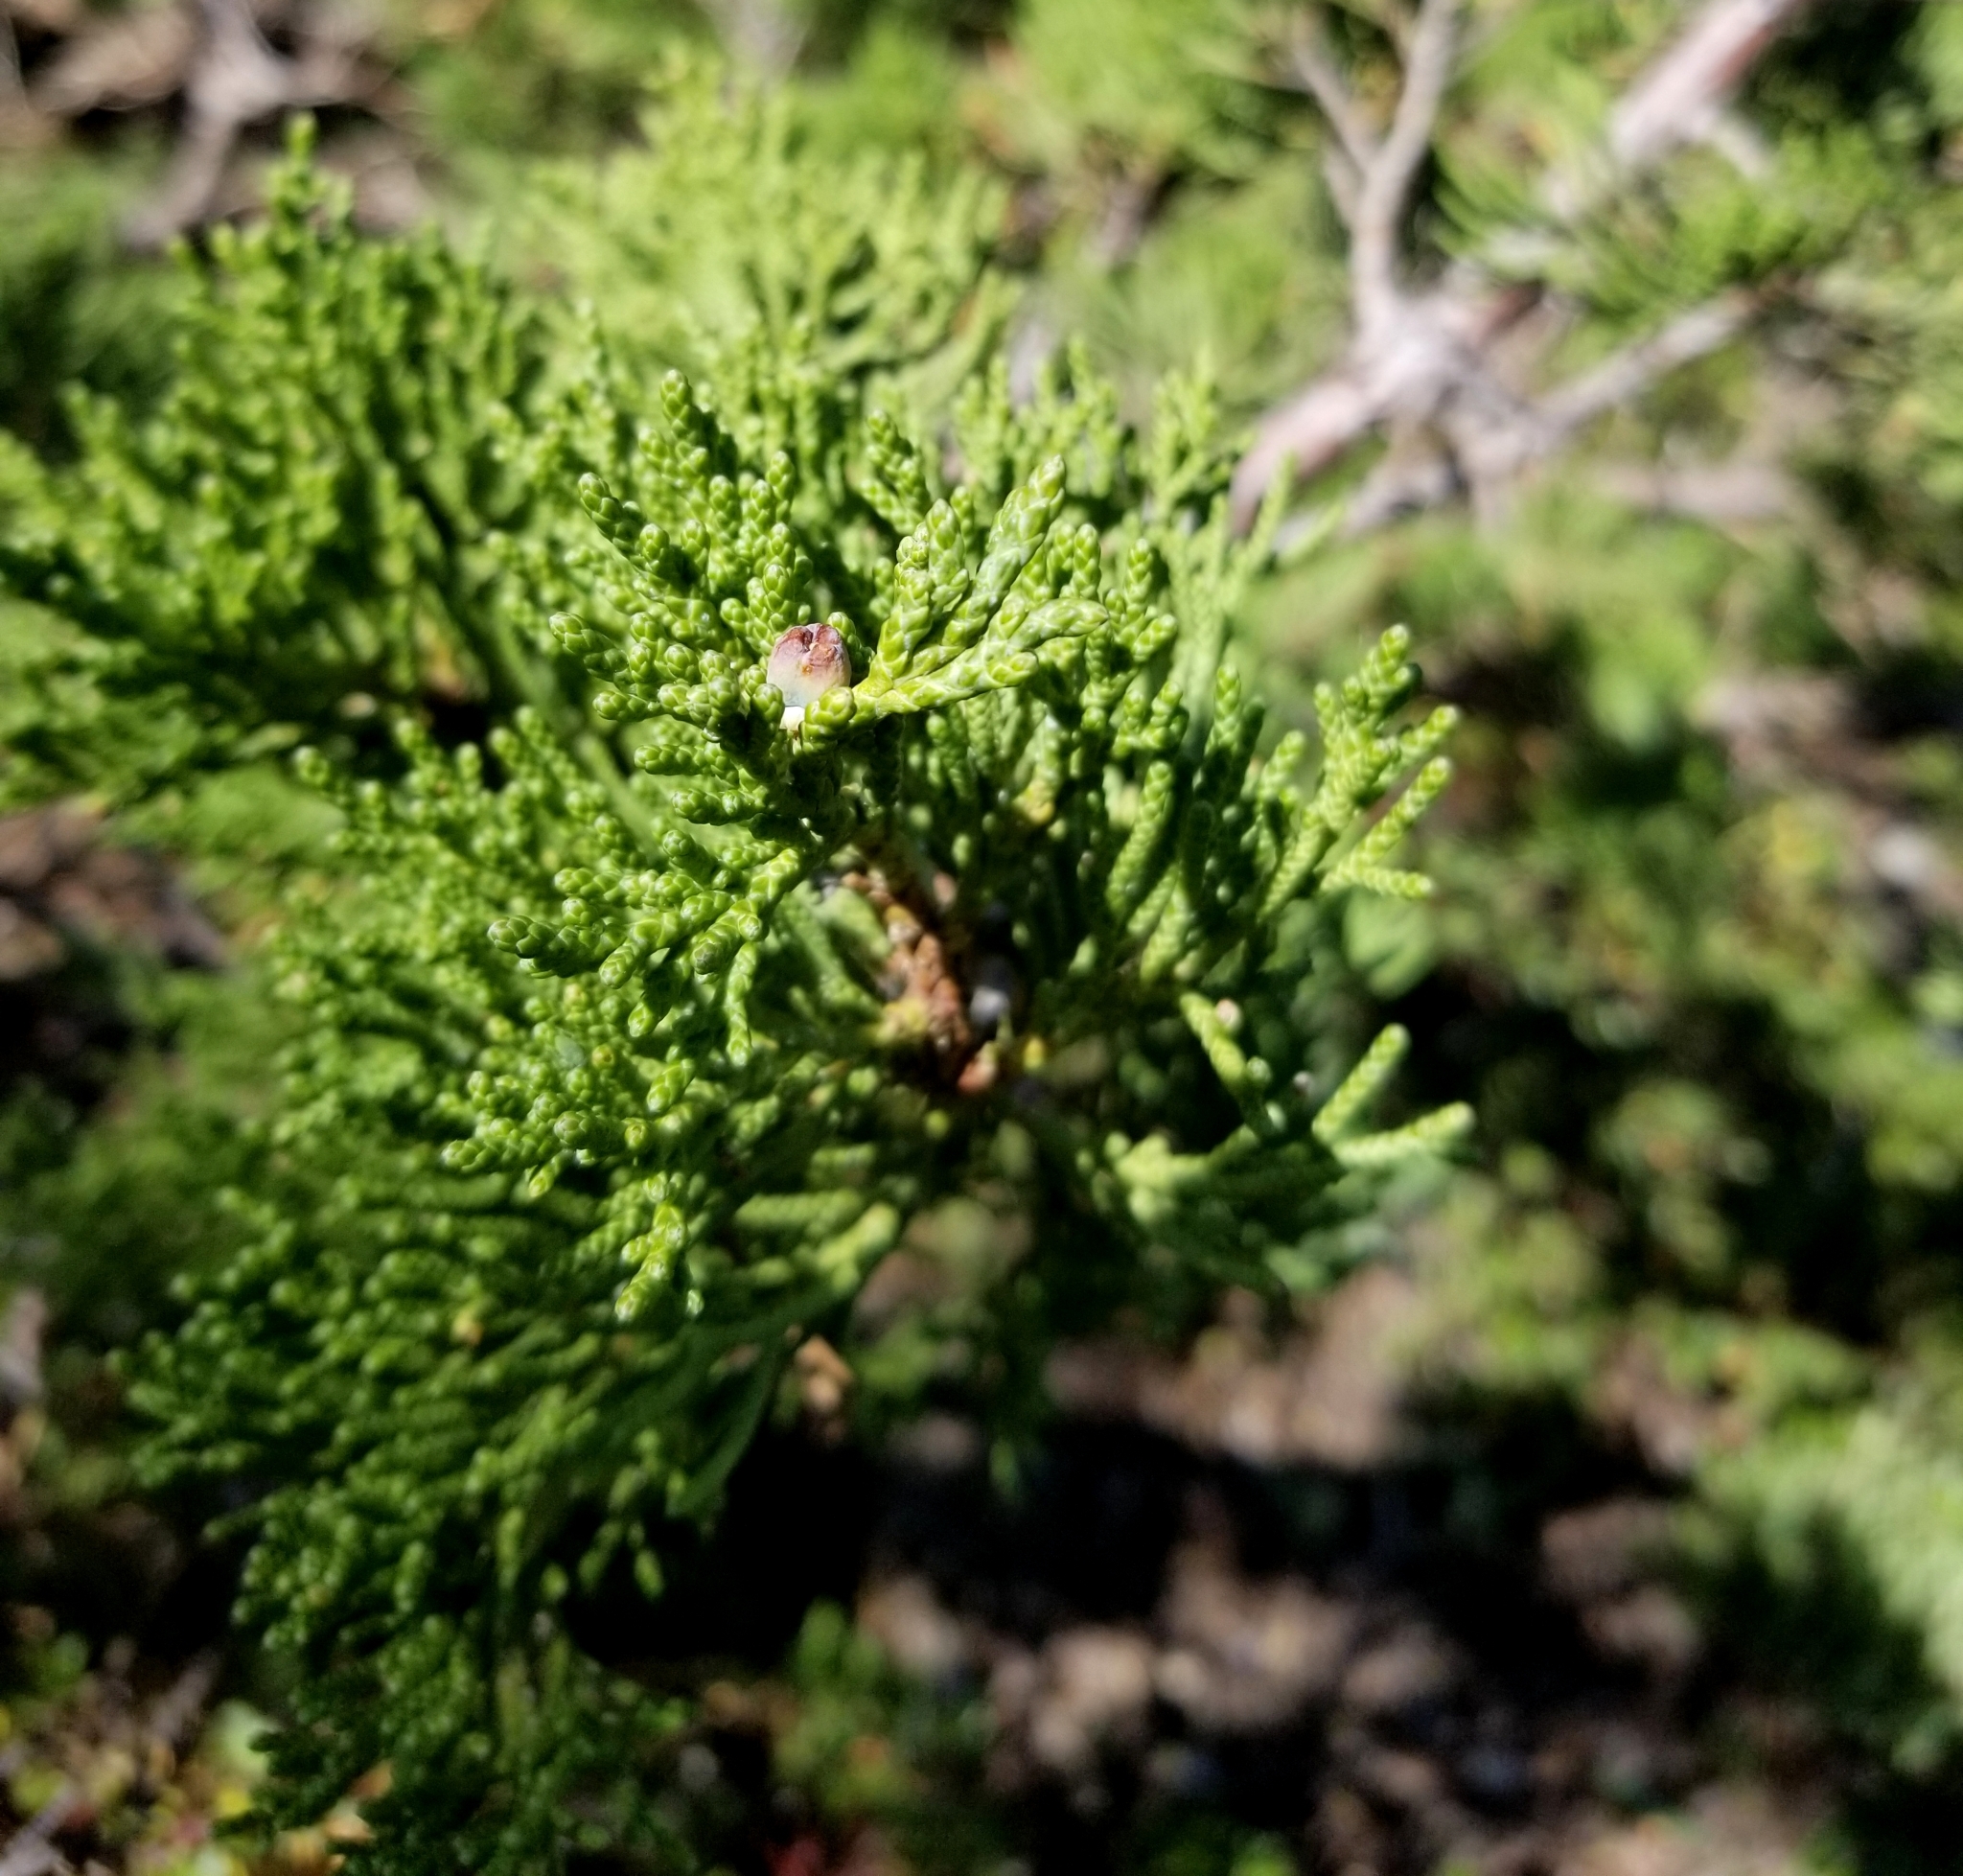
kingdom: Plantae
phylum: Tracheophyta
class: Pinopsida
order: Pinales
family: Cupressaceae
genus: Juniperus
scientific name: Juniperus occidentalis
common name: Western juniper
